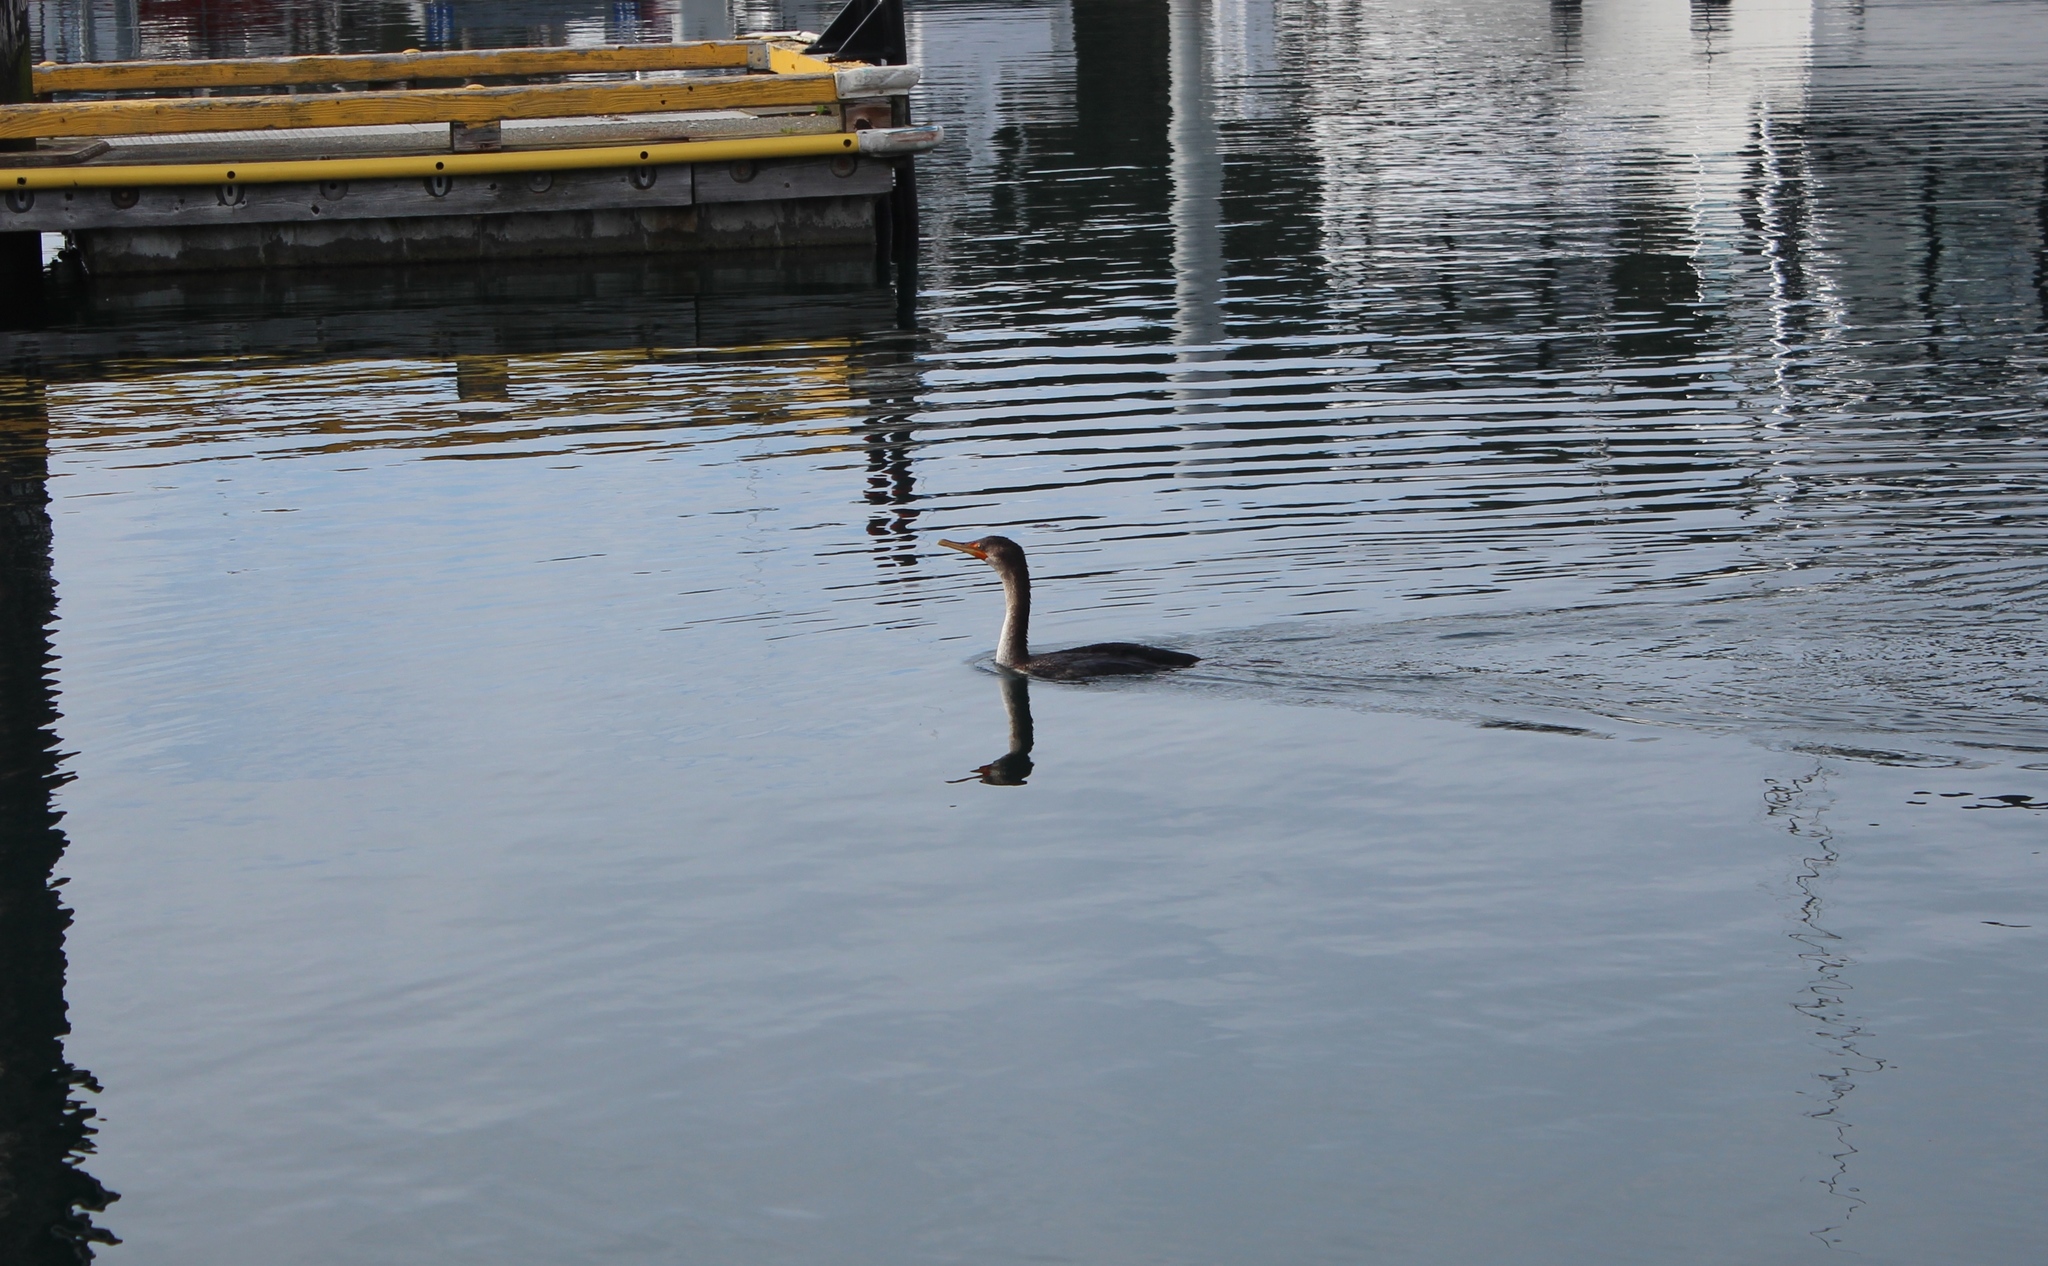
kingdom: Animalia
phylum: Chordata
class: Aves
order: Suliformes
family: Phalacrocoracidae
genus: Phalacrocorax
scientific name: Phalacrocorax auritus
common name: Double-crested cormorant
